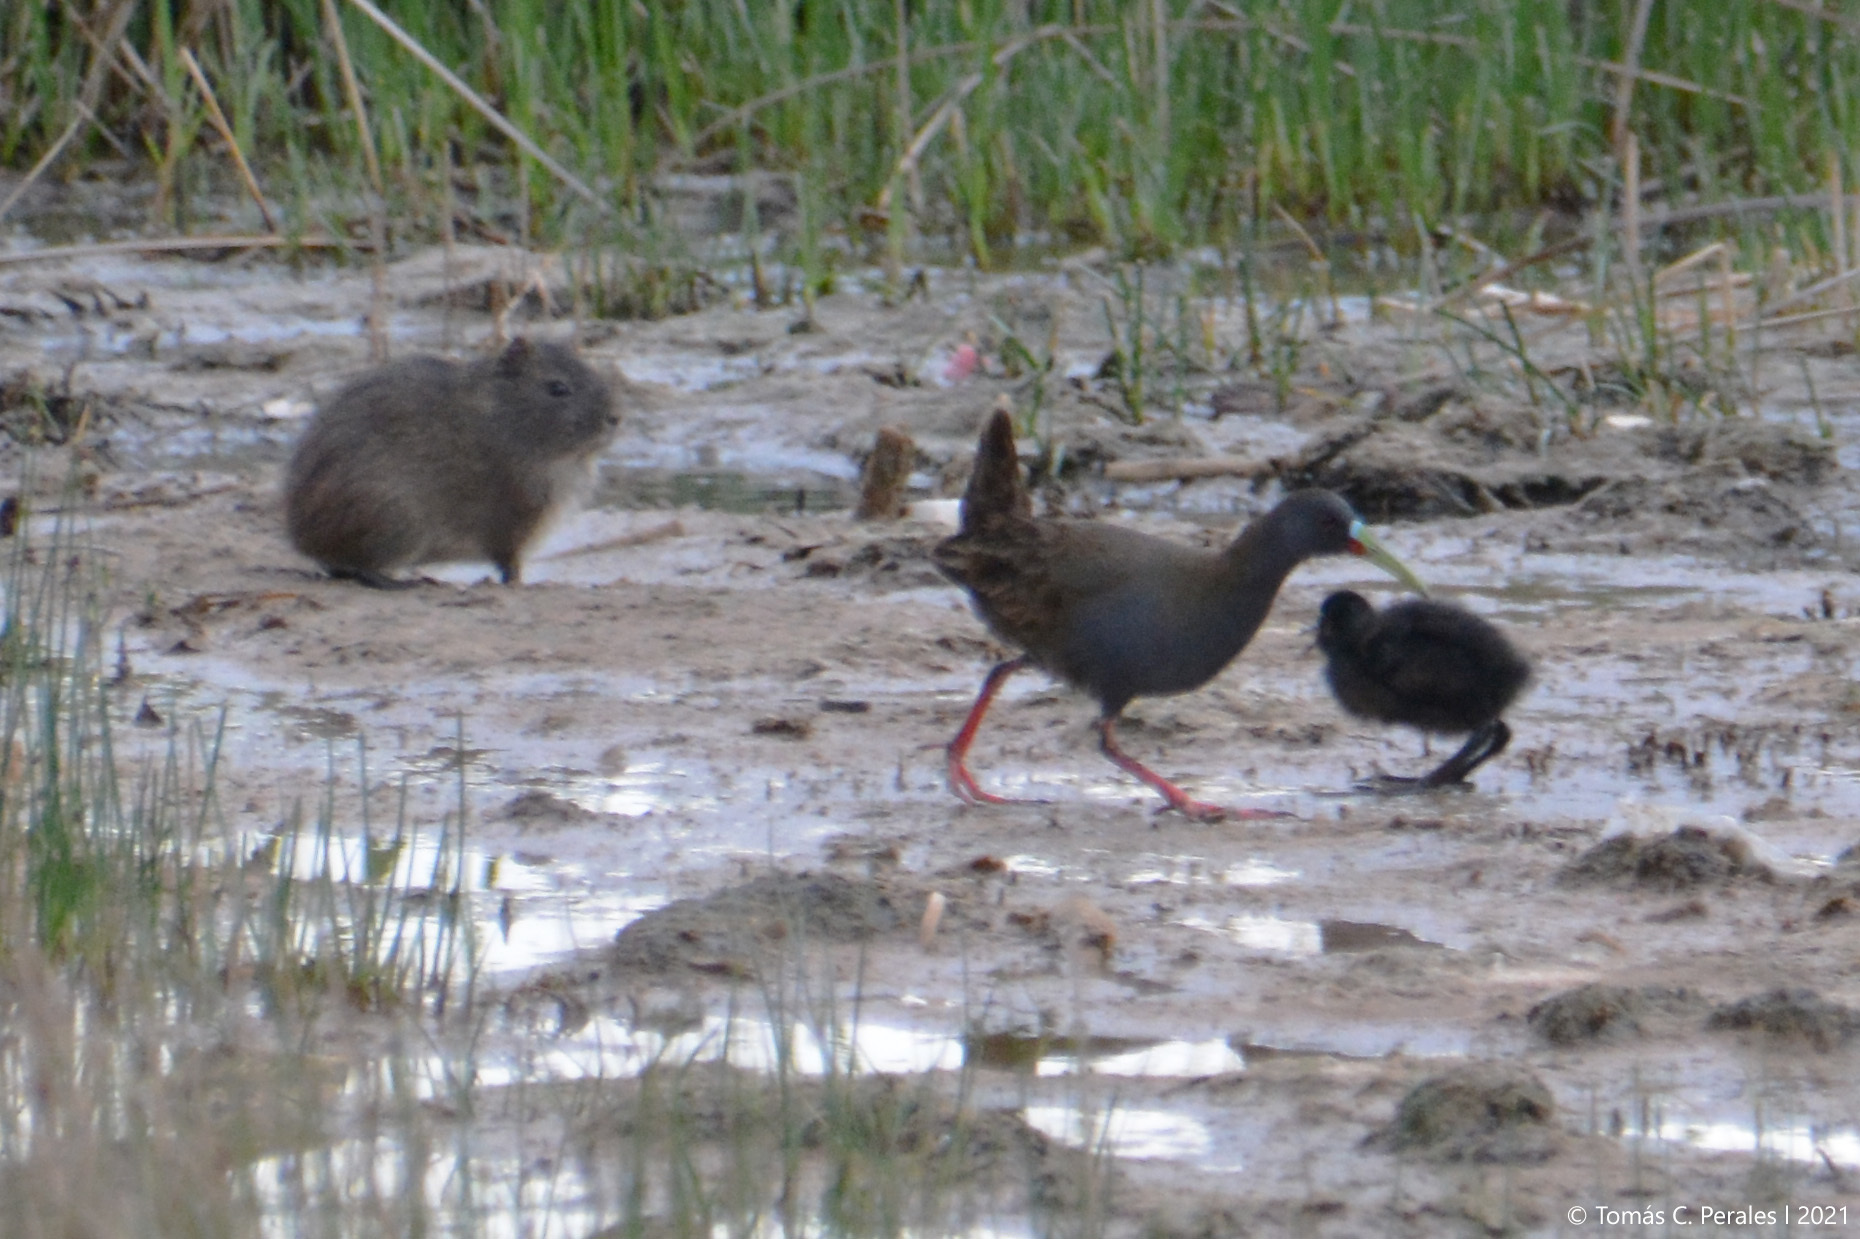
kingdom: Animalia
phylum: Chordata
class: Aves
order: Gruiformes
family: Rallidae
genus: Pardirallus
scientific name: Pardirallus sanguinolentus
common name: Plumbeous rail
